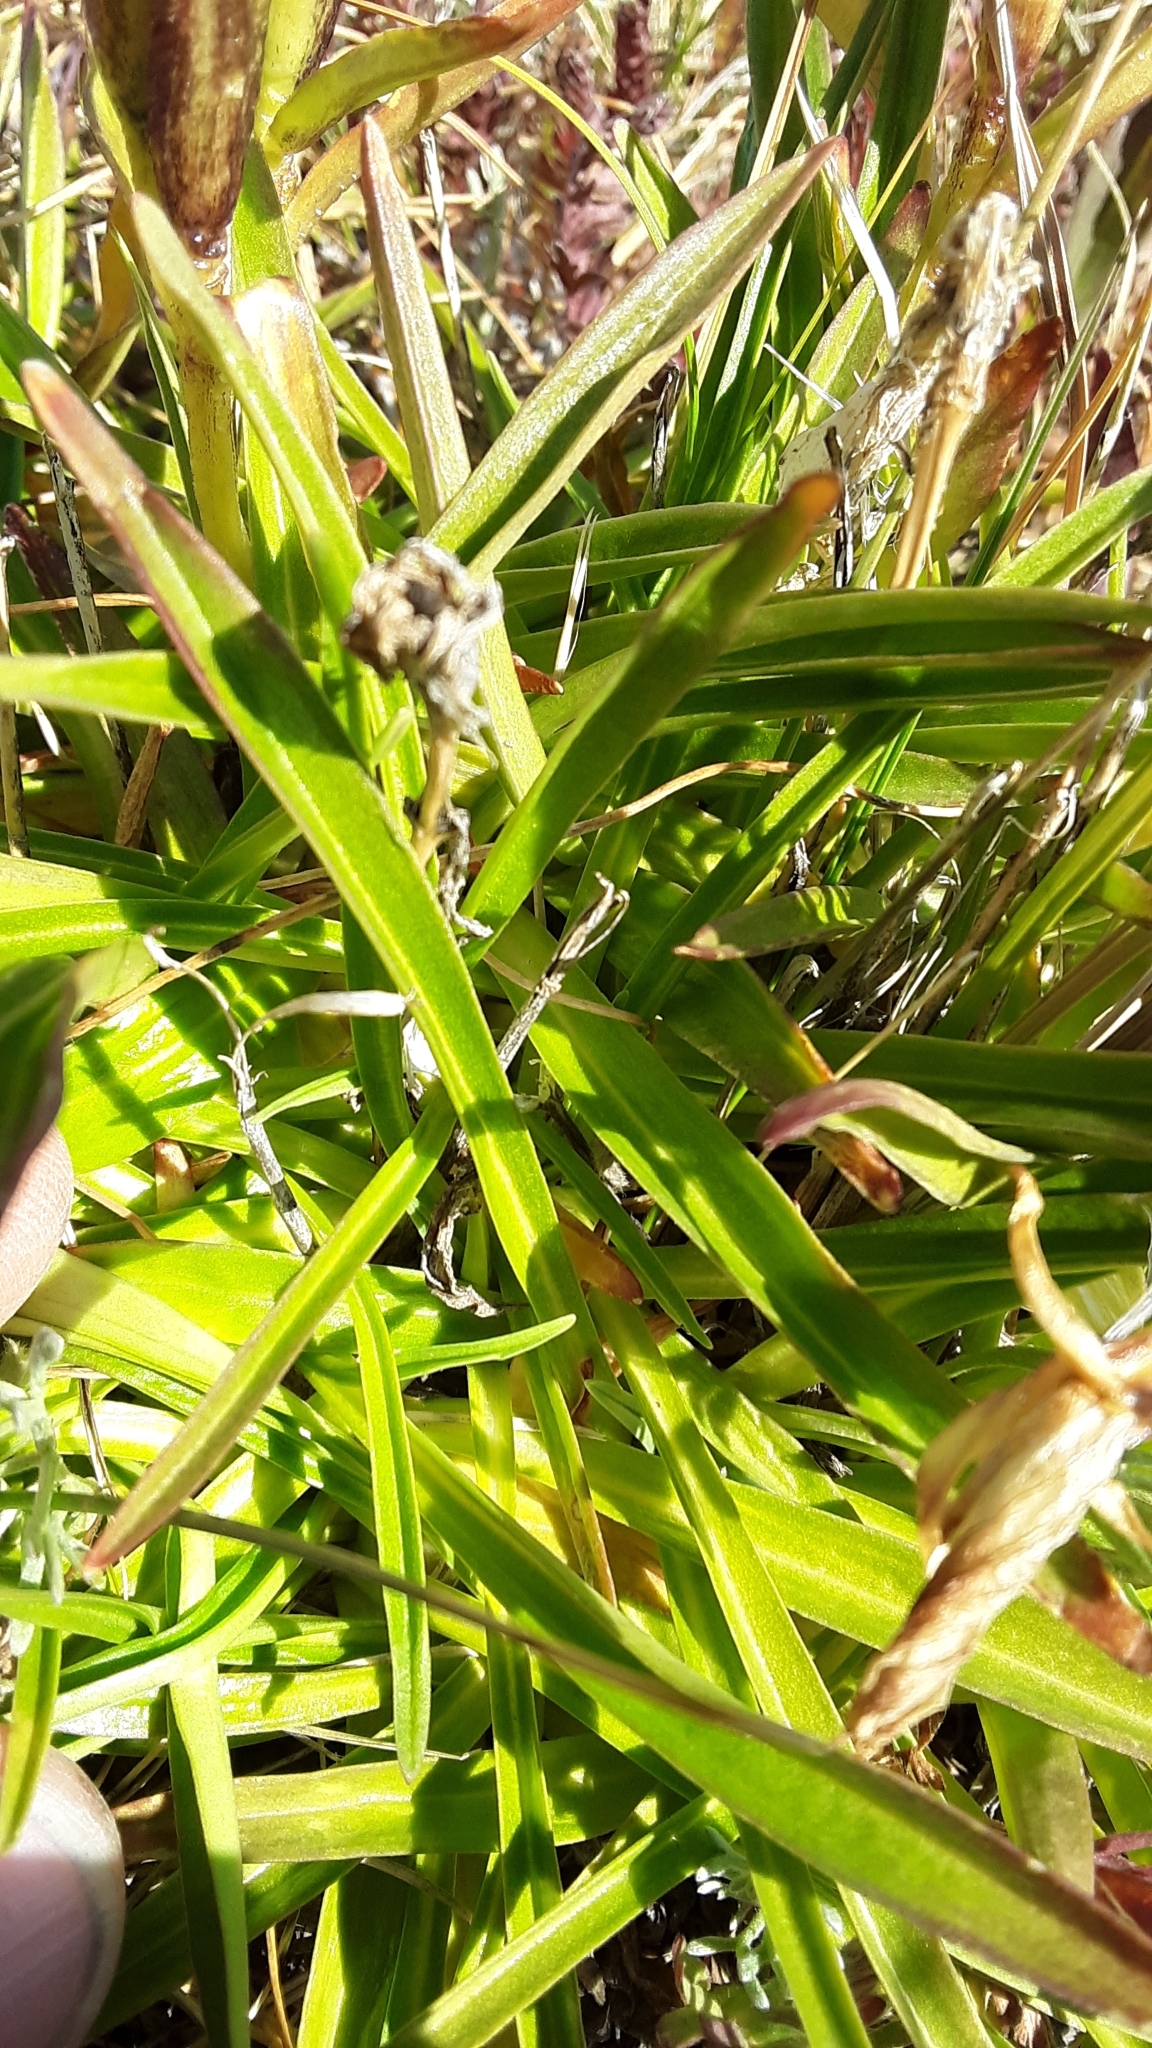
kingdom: Plantae
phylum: Tracheophyta
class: Magnoliopsida
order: Gentianales
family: Gentianaceae
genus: Gentiana
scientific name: Gentiana algida
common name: Arctic gentian
